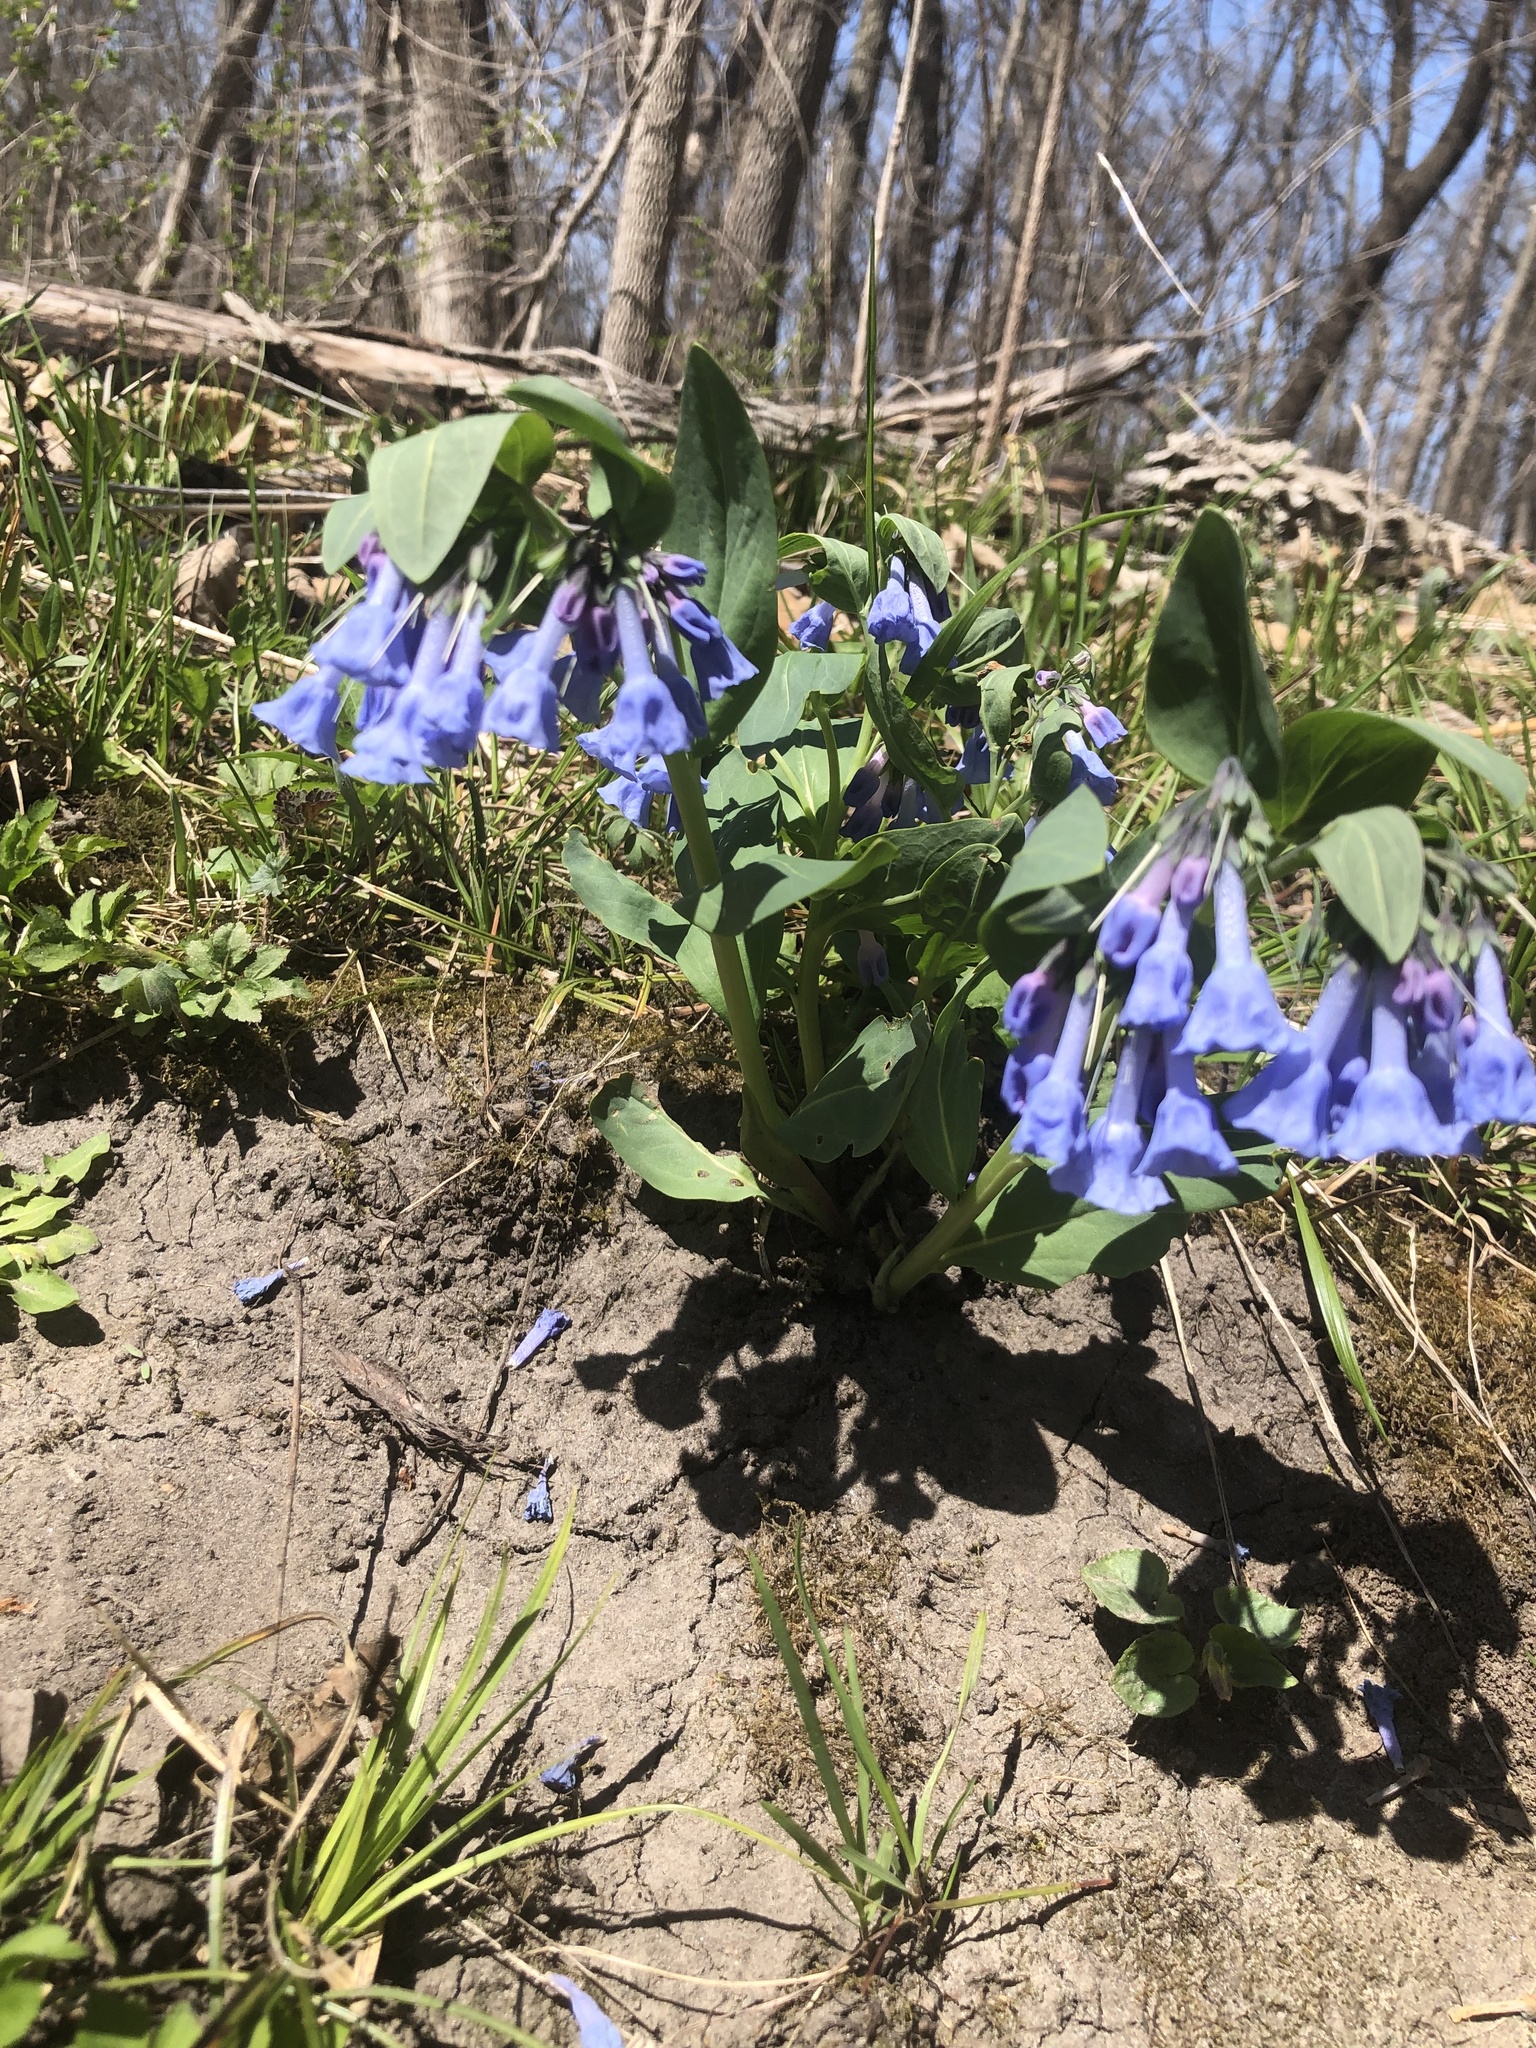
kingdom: Plantae
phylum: Tracheophyta
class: Magnoliopsida
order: Boraginales
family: Boraginaceae
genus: Mertensia
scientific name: Mertensia virginica
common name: Virginia bluebells
